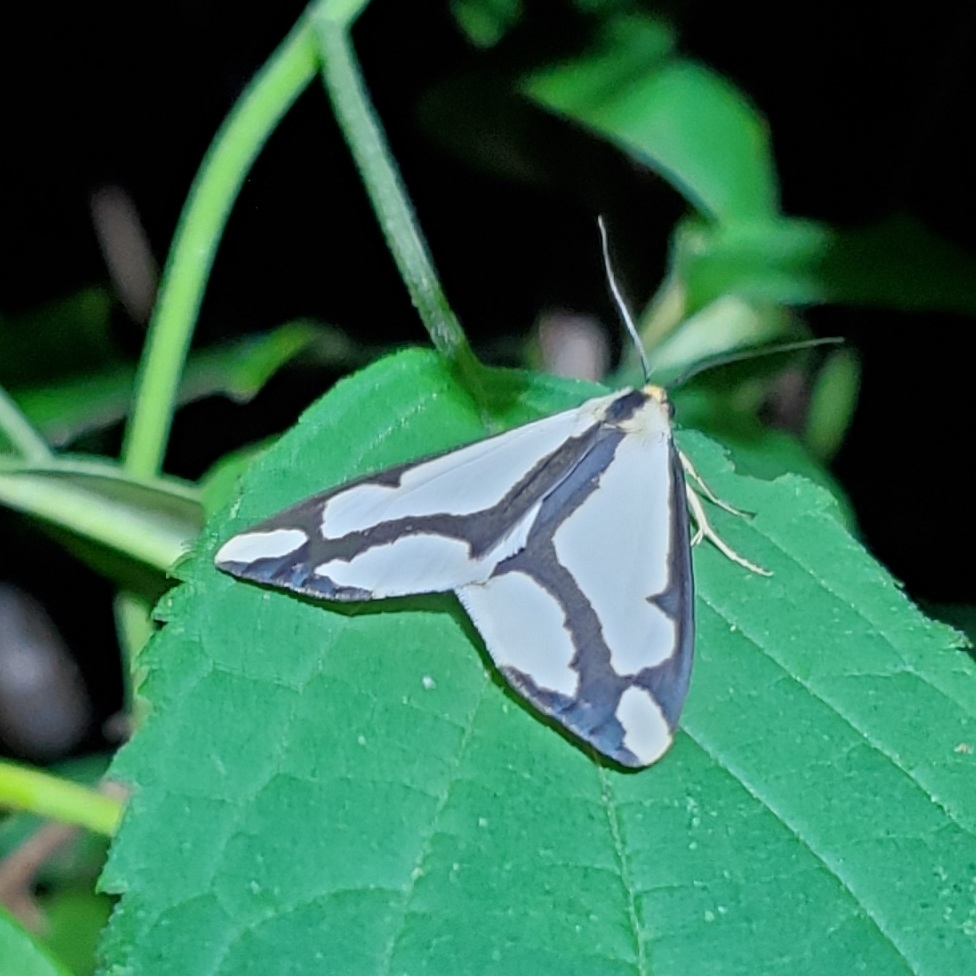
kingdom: Animalia
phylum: Arthropoda
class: Insecta
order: Lepidoptera
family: Erebidae
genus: Haploa
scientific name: Haploa lecontei
